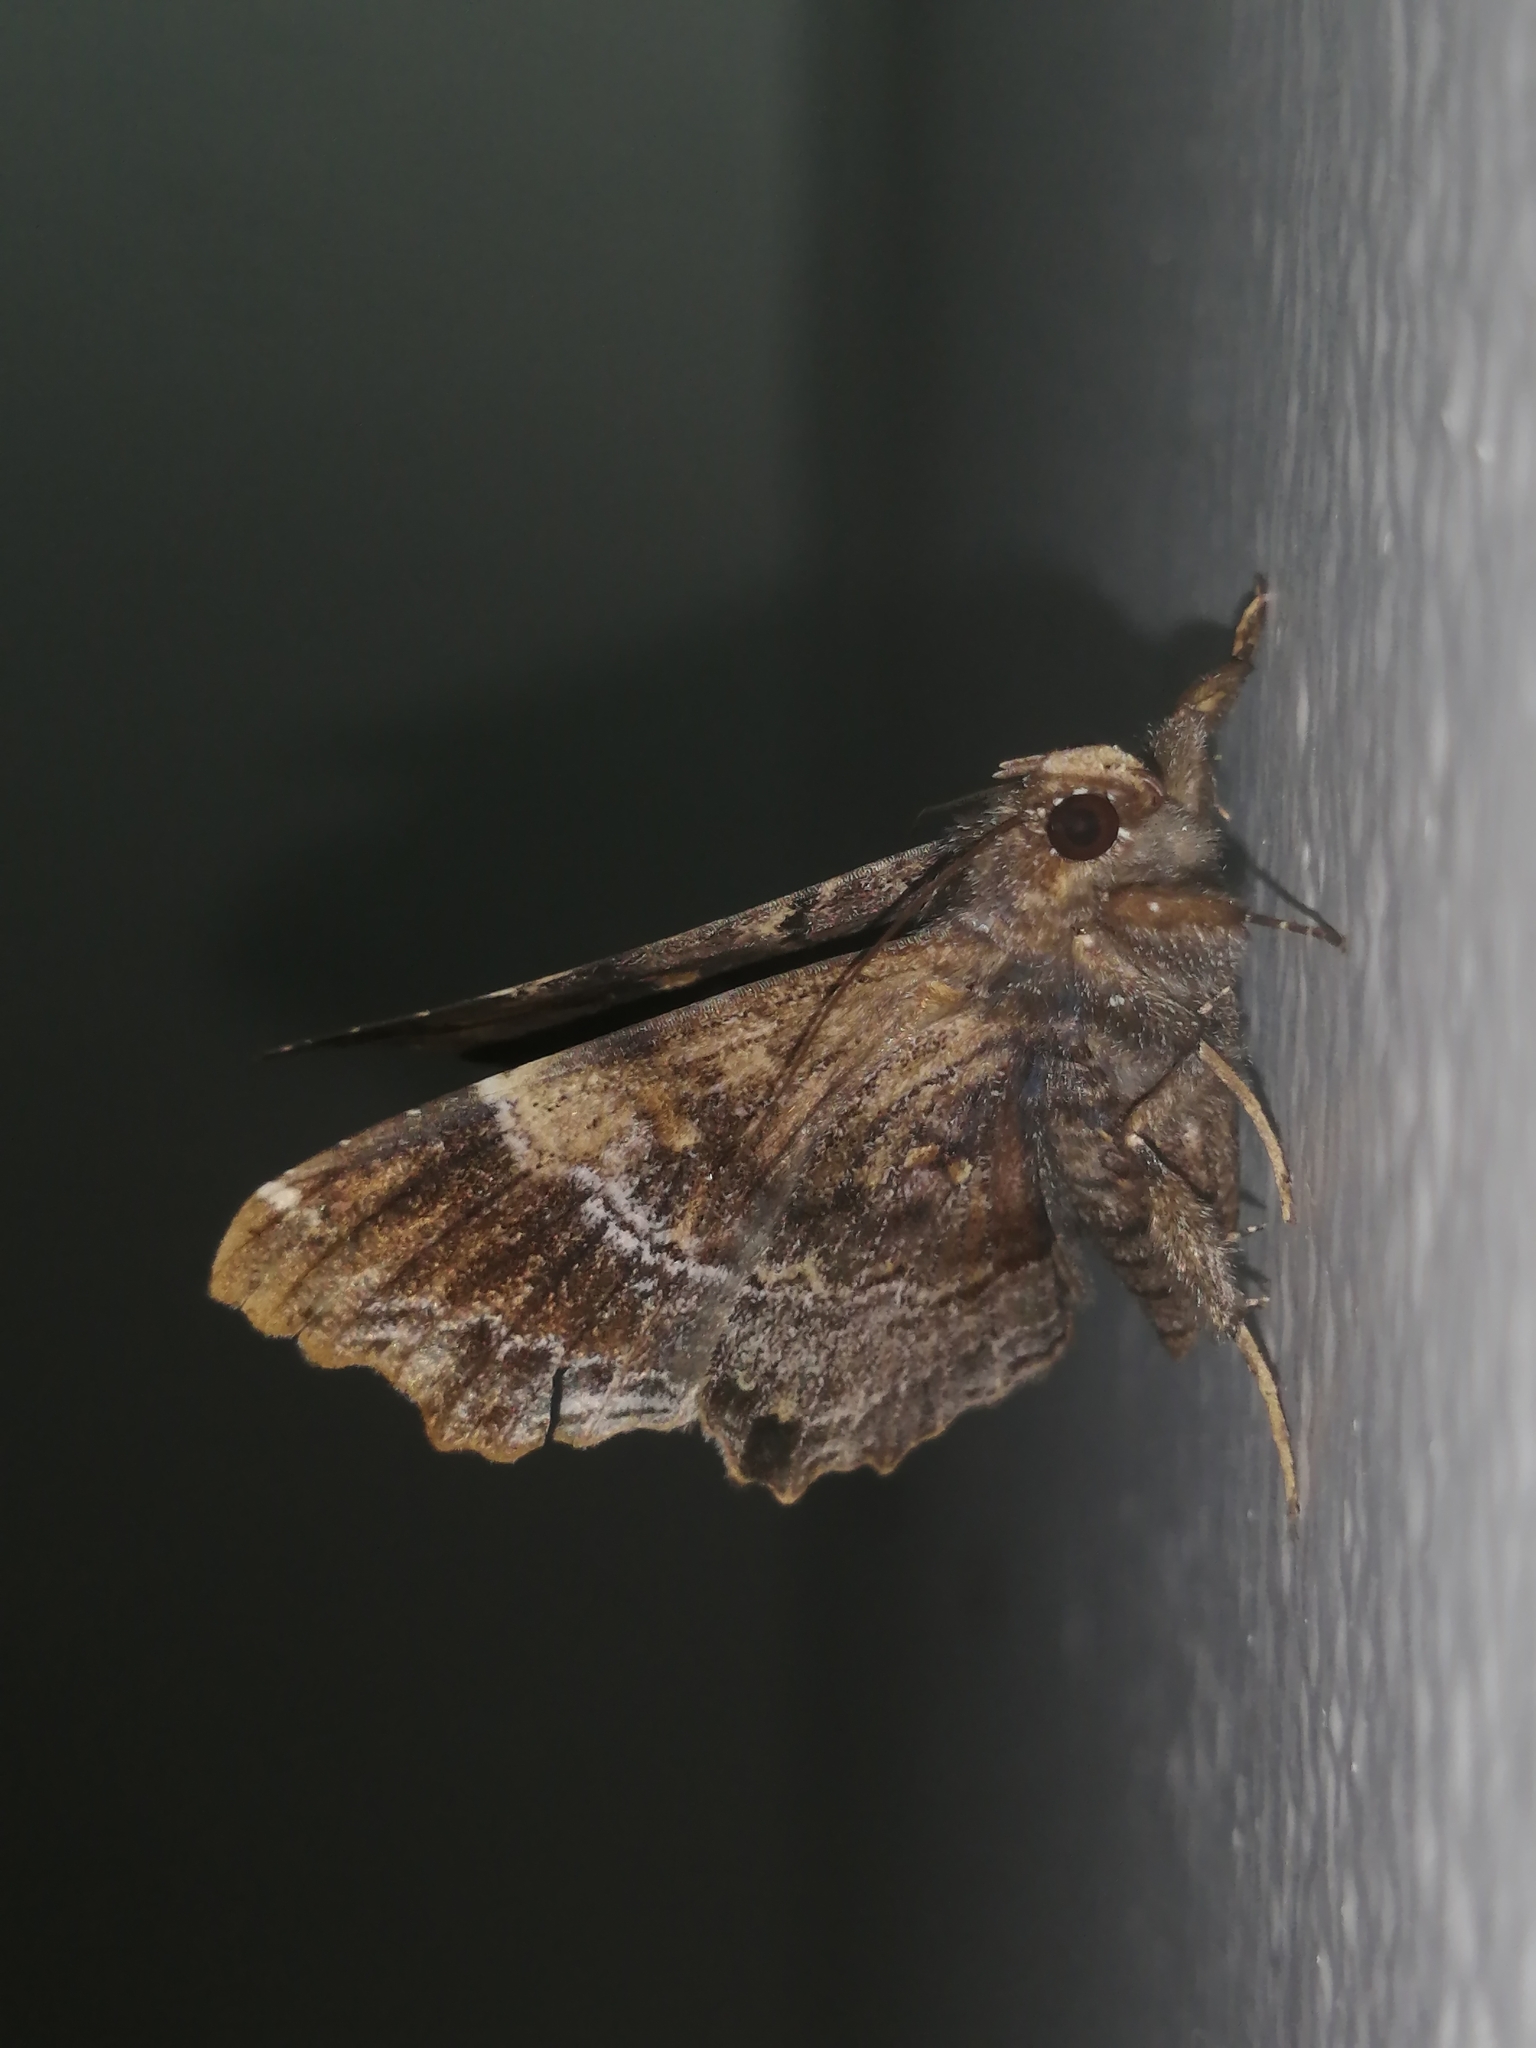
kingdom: Animalia
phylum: Arthropoda
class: Insecta
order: Lepidoptera
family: Erebidae
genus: Lacera
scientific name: Lacera noctilio
